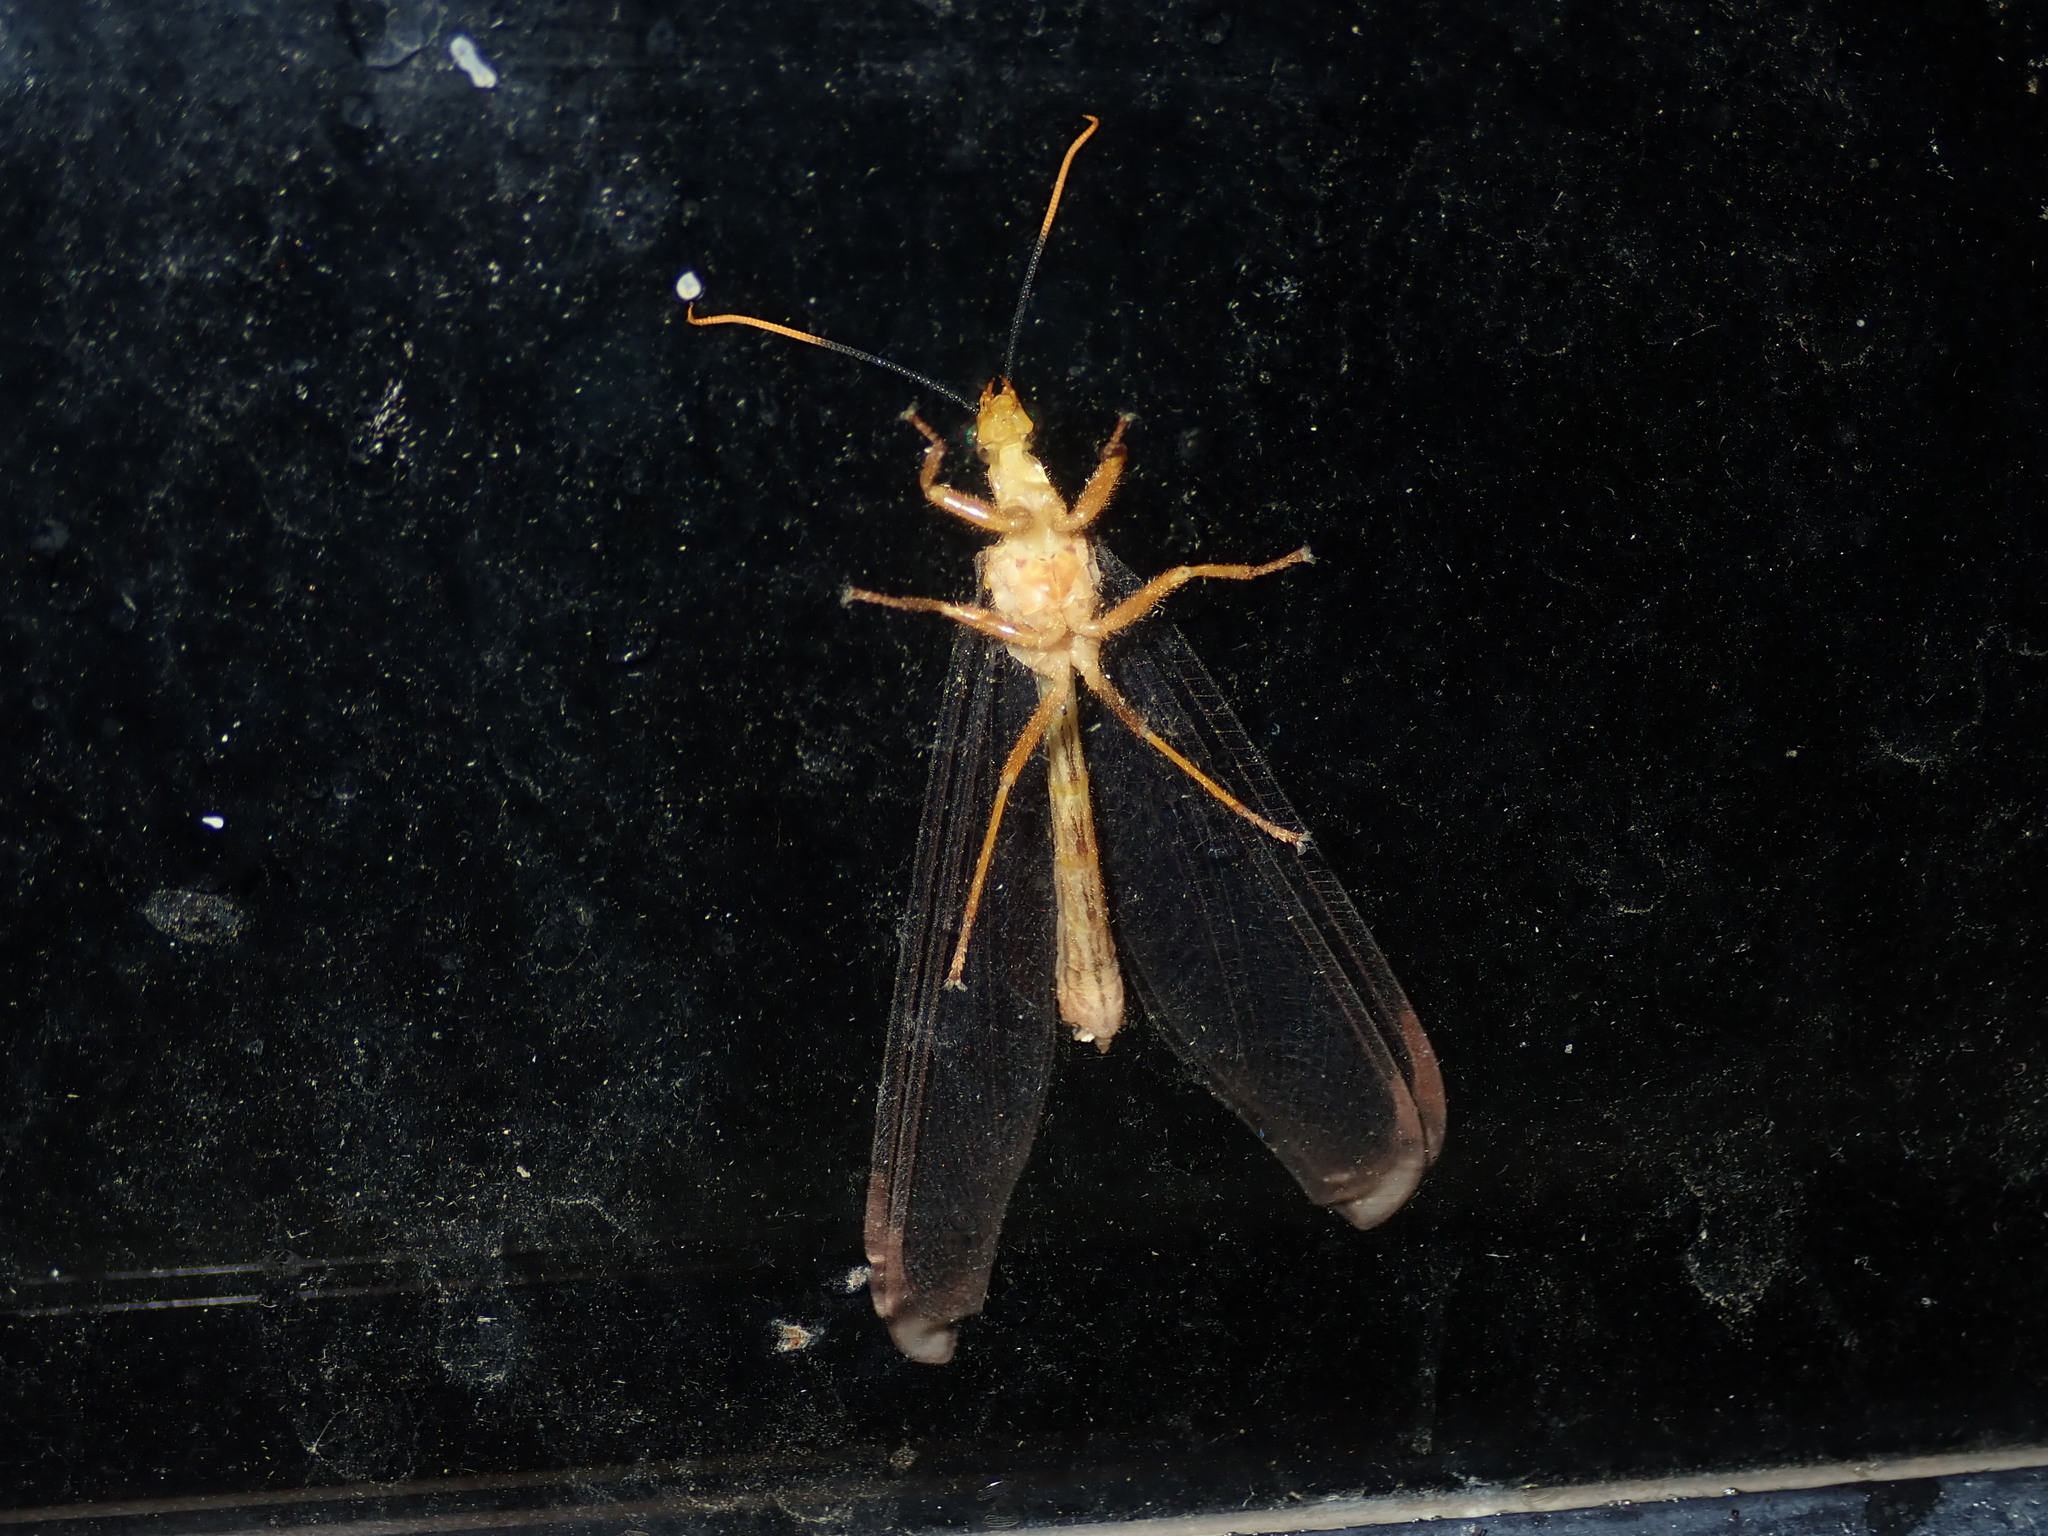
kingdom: Animalia
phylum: Arthropoda
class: Insecta
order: Neuroptera
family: Nymphidae
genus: Nymphes
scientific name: Nymphes myrmeleonoides
